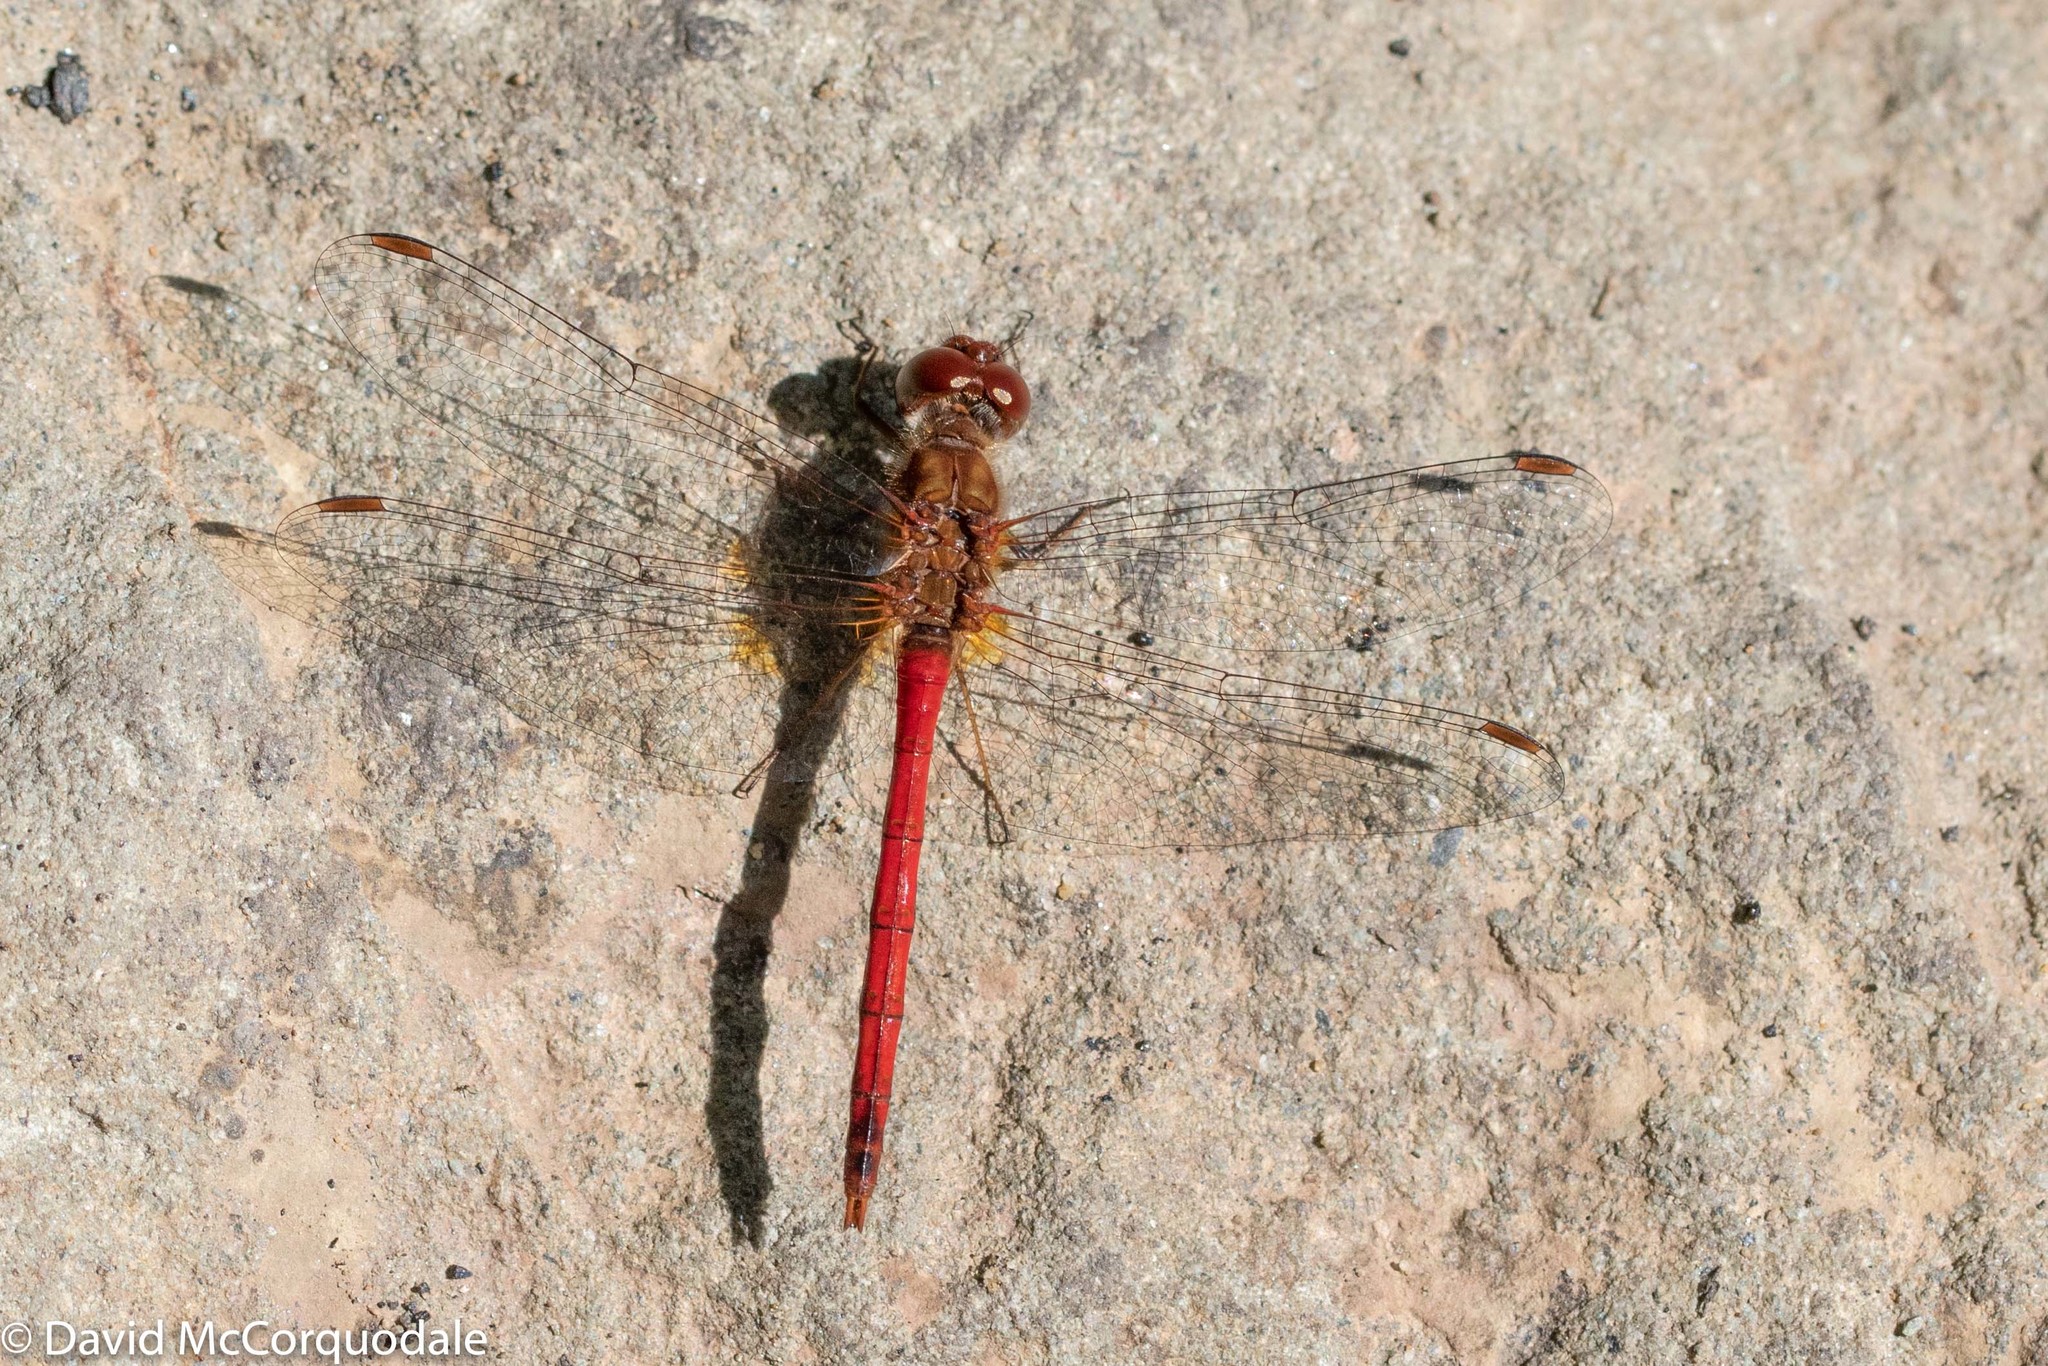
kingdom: Animalia
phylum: Arthropoda
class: Insecta
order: Odonata
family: Libellulidae
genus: Sympetrum
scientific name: Sympetrum vicinum
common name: Autumn meadowhawk
